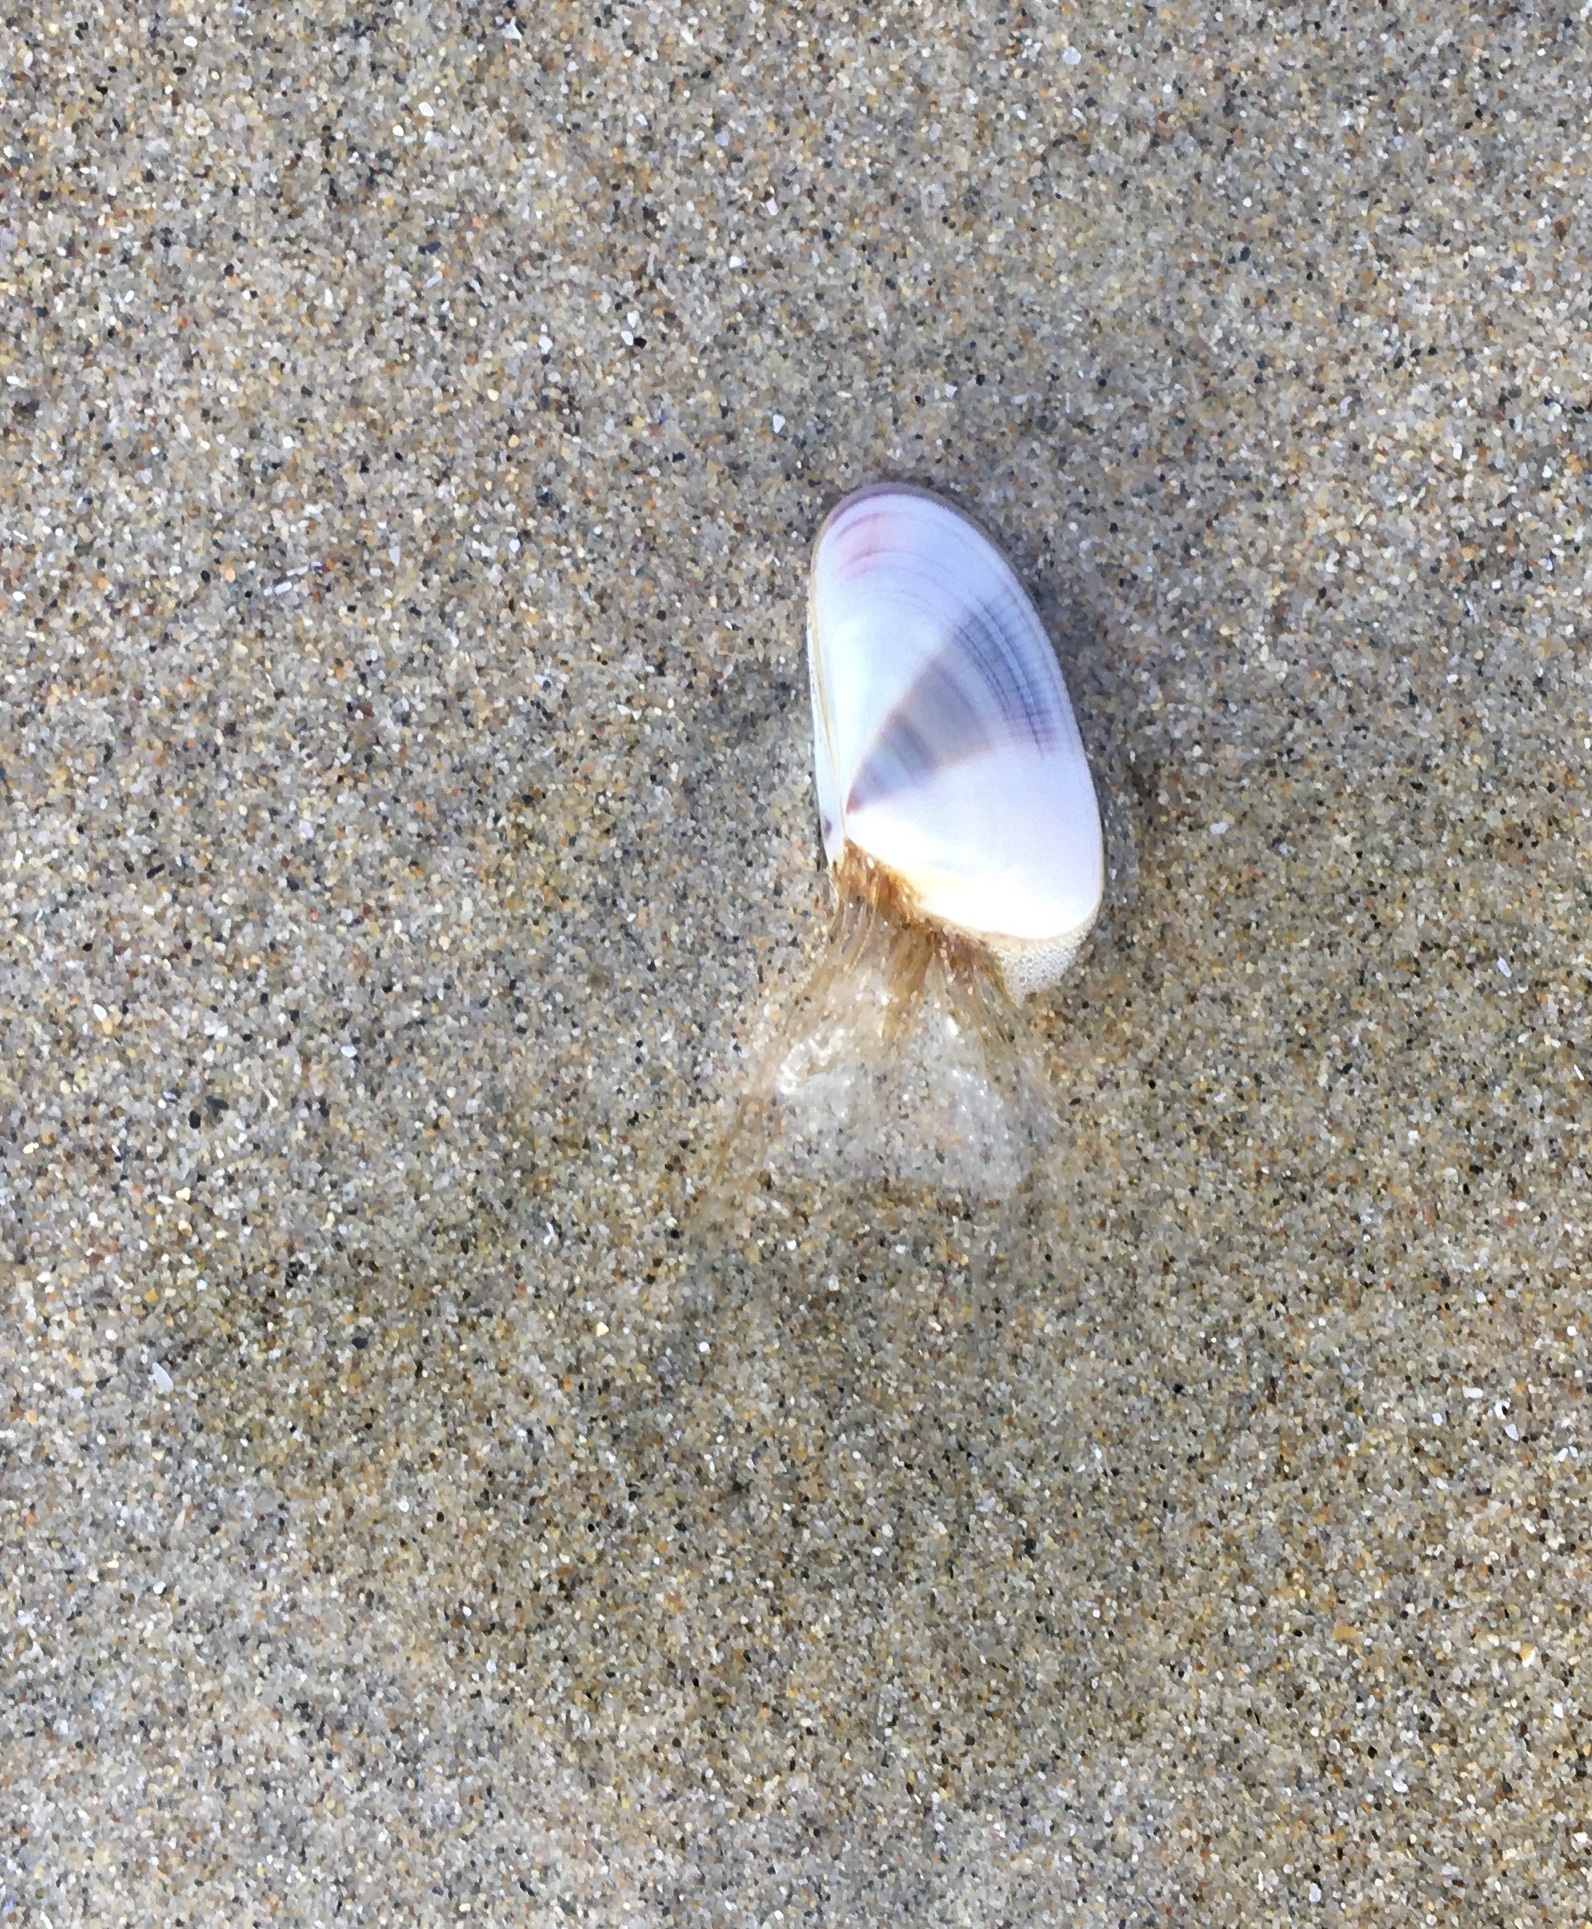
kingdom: Animalia
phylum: Cnidaria
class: Hydrozoa
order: Leptothecata
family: Lovenellidae
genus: Eucheilota
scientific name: Eucheilota bakeri
